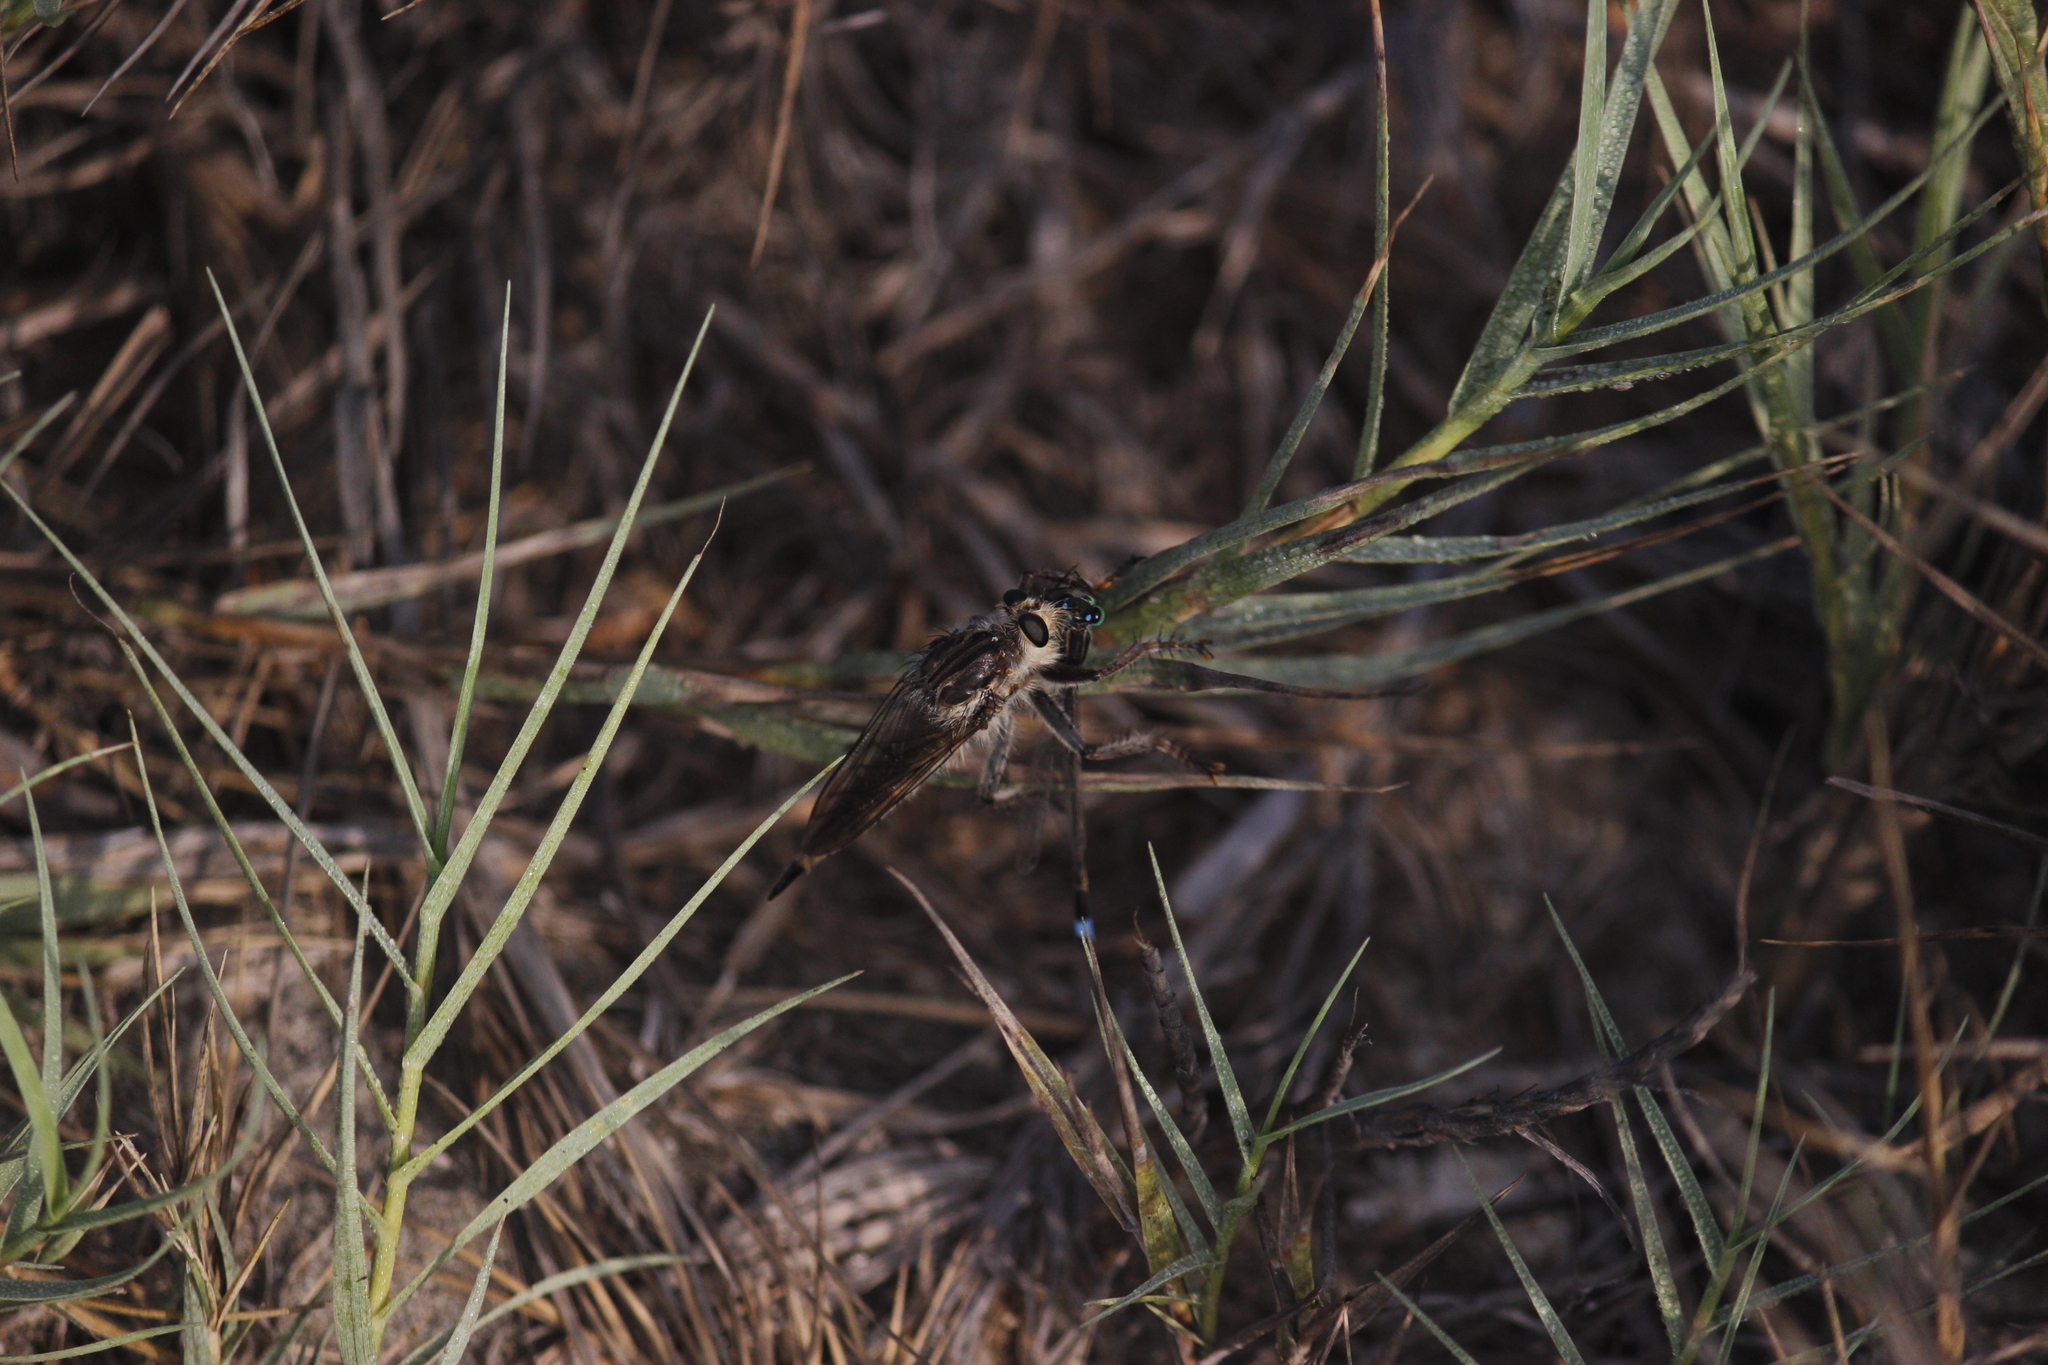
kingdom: Animalia
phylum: Arthropoda
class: Insecta
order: Diptera
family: Asilidae
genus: Lochmorhynchus
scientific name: Lochmorhynchus leoninus
